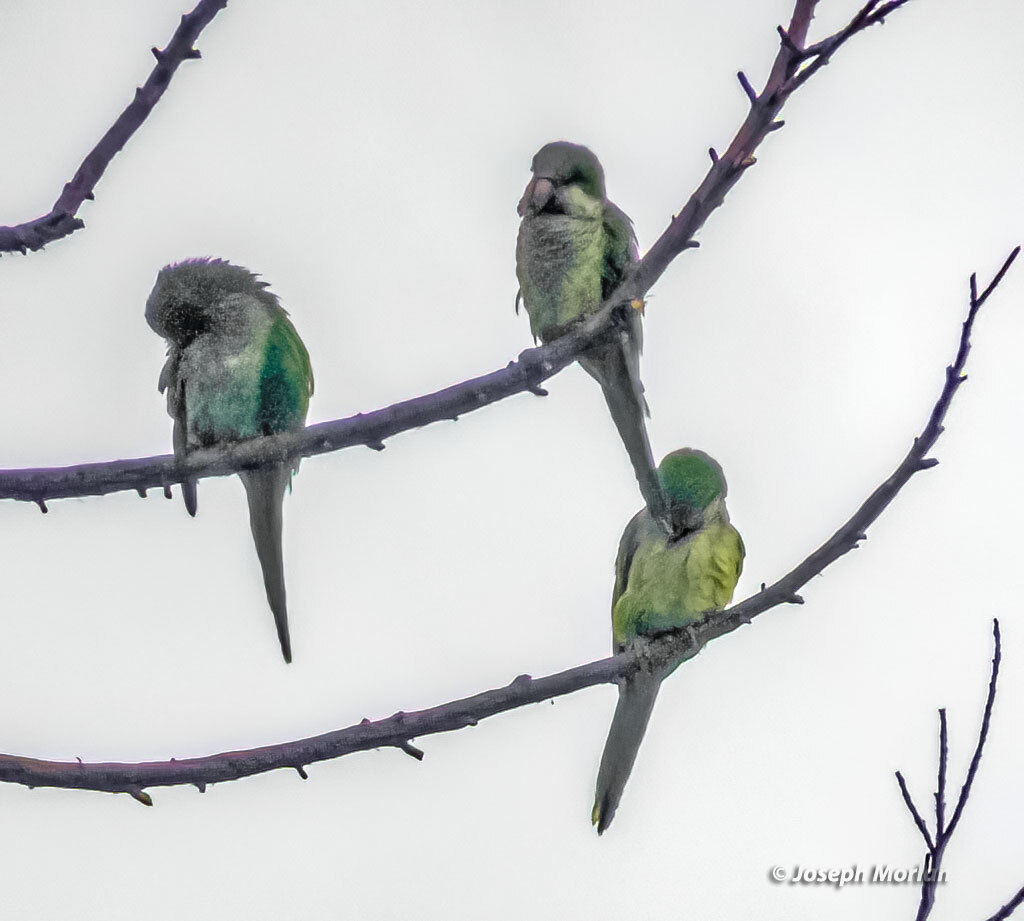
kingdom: Animalia
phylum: Chordata
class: Aves
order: Psittaciformes
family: Psittacidae
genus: Myiopsitta
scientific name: Myiopsitta monachus
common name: Monk parakeet
